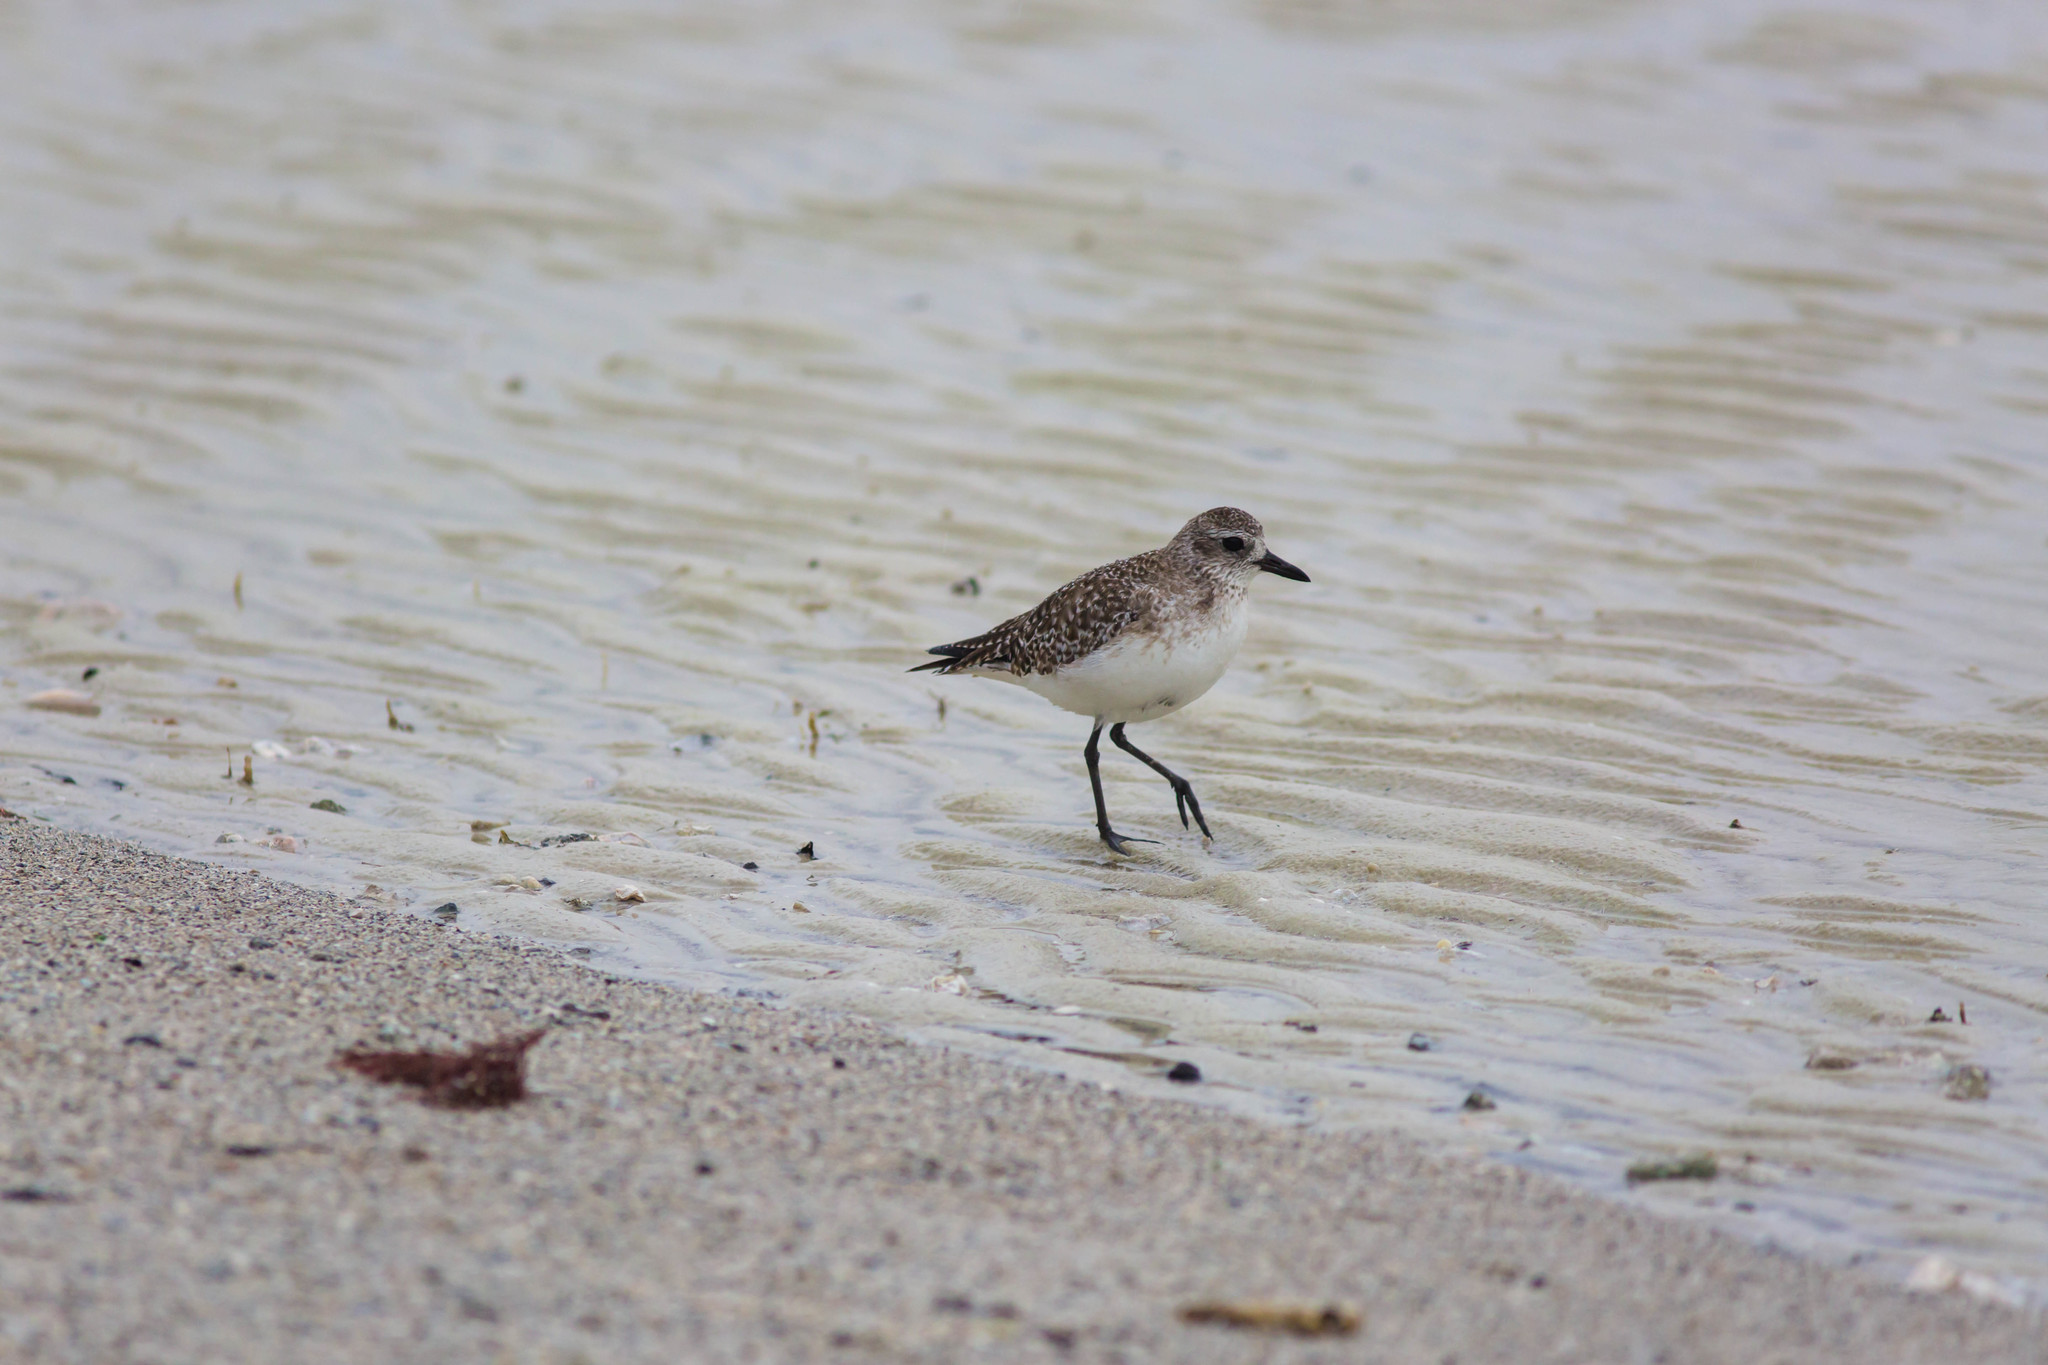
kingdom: Animalia
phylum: Chordata
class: Aves
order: Charadriiformes
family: Charadriidae
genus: Pluvialis
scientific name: Pluvialis squatarola
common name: Grey plover
